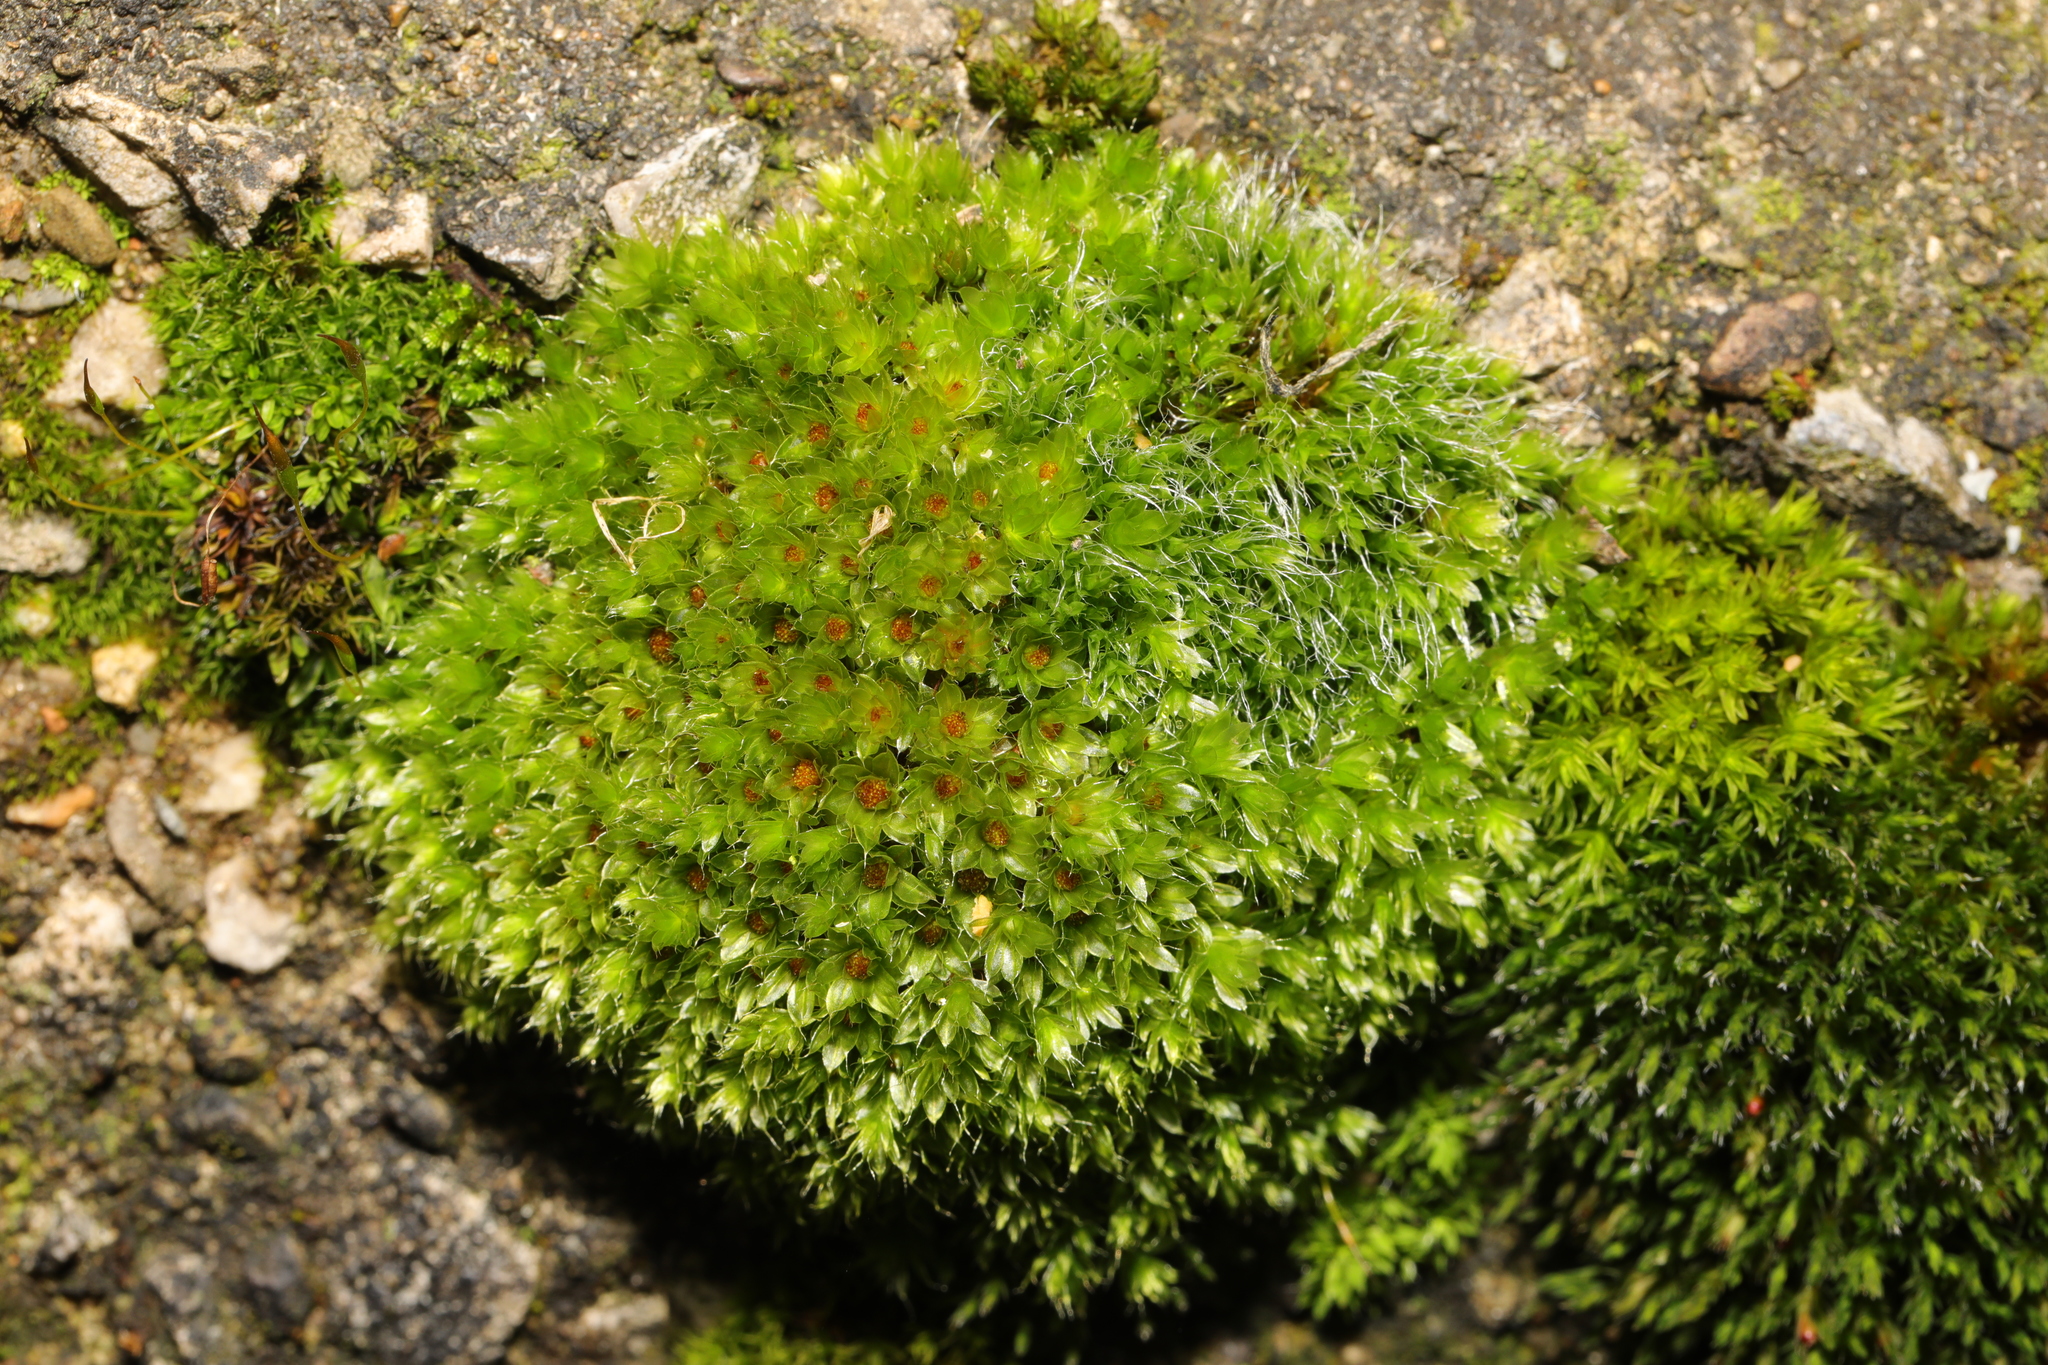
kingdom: Plantae
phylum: Bryophyta
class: Bryopsida
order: Bryales
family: Bryaceae
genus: Rosulabryum
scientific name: Rosulabryum capillare
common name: Capillary thread-moss
